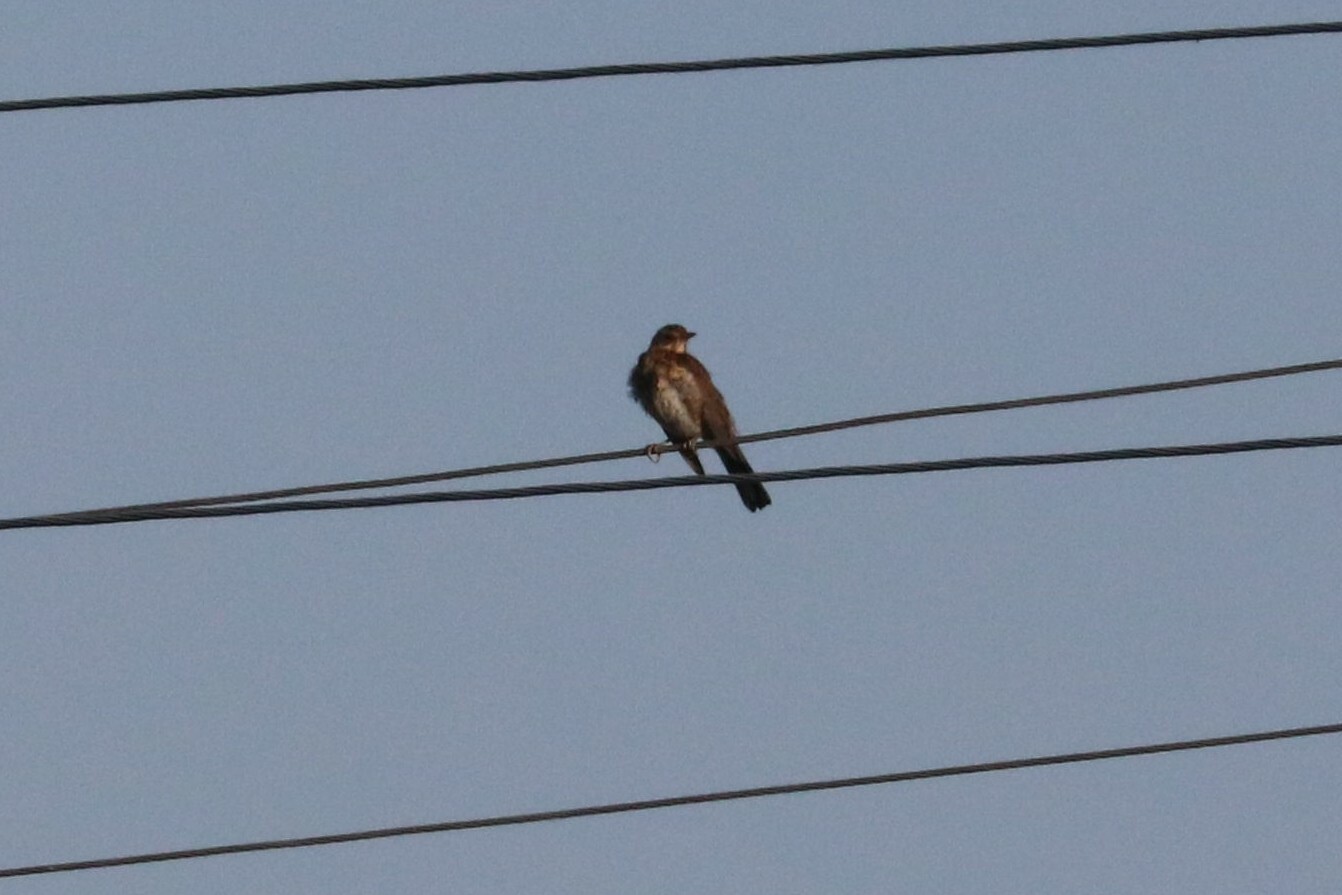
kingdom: Animalia
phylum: Chordata
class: Aves
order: Passeriformes
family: Turdidae
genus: Turdus
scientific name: Turdus pilaris
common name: Fieldfare
